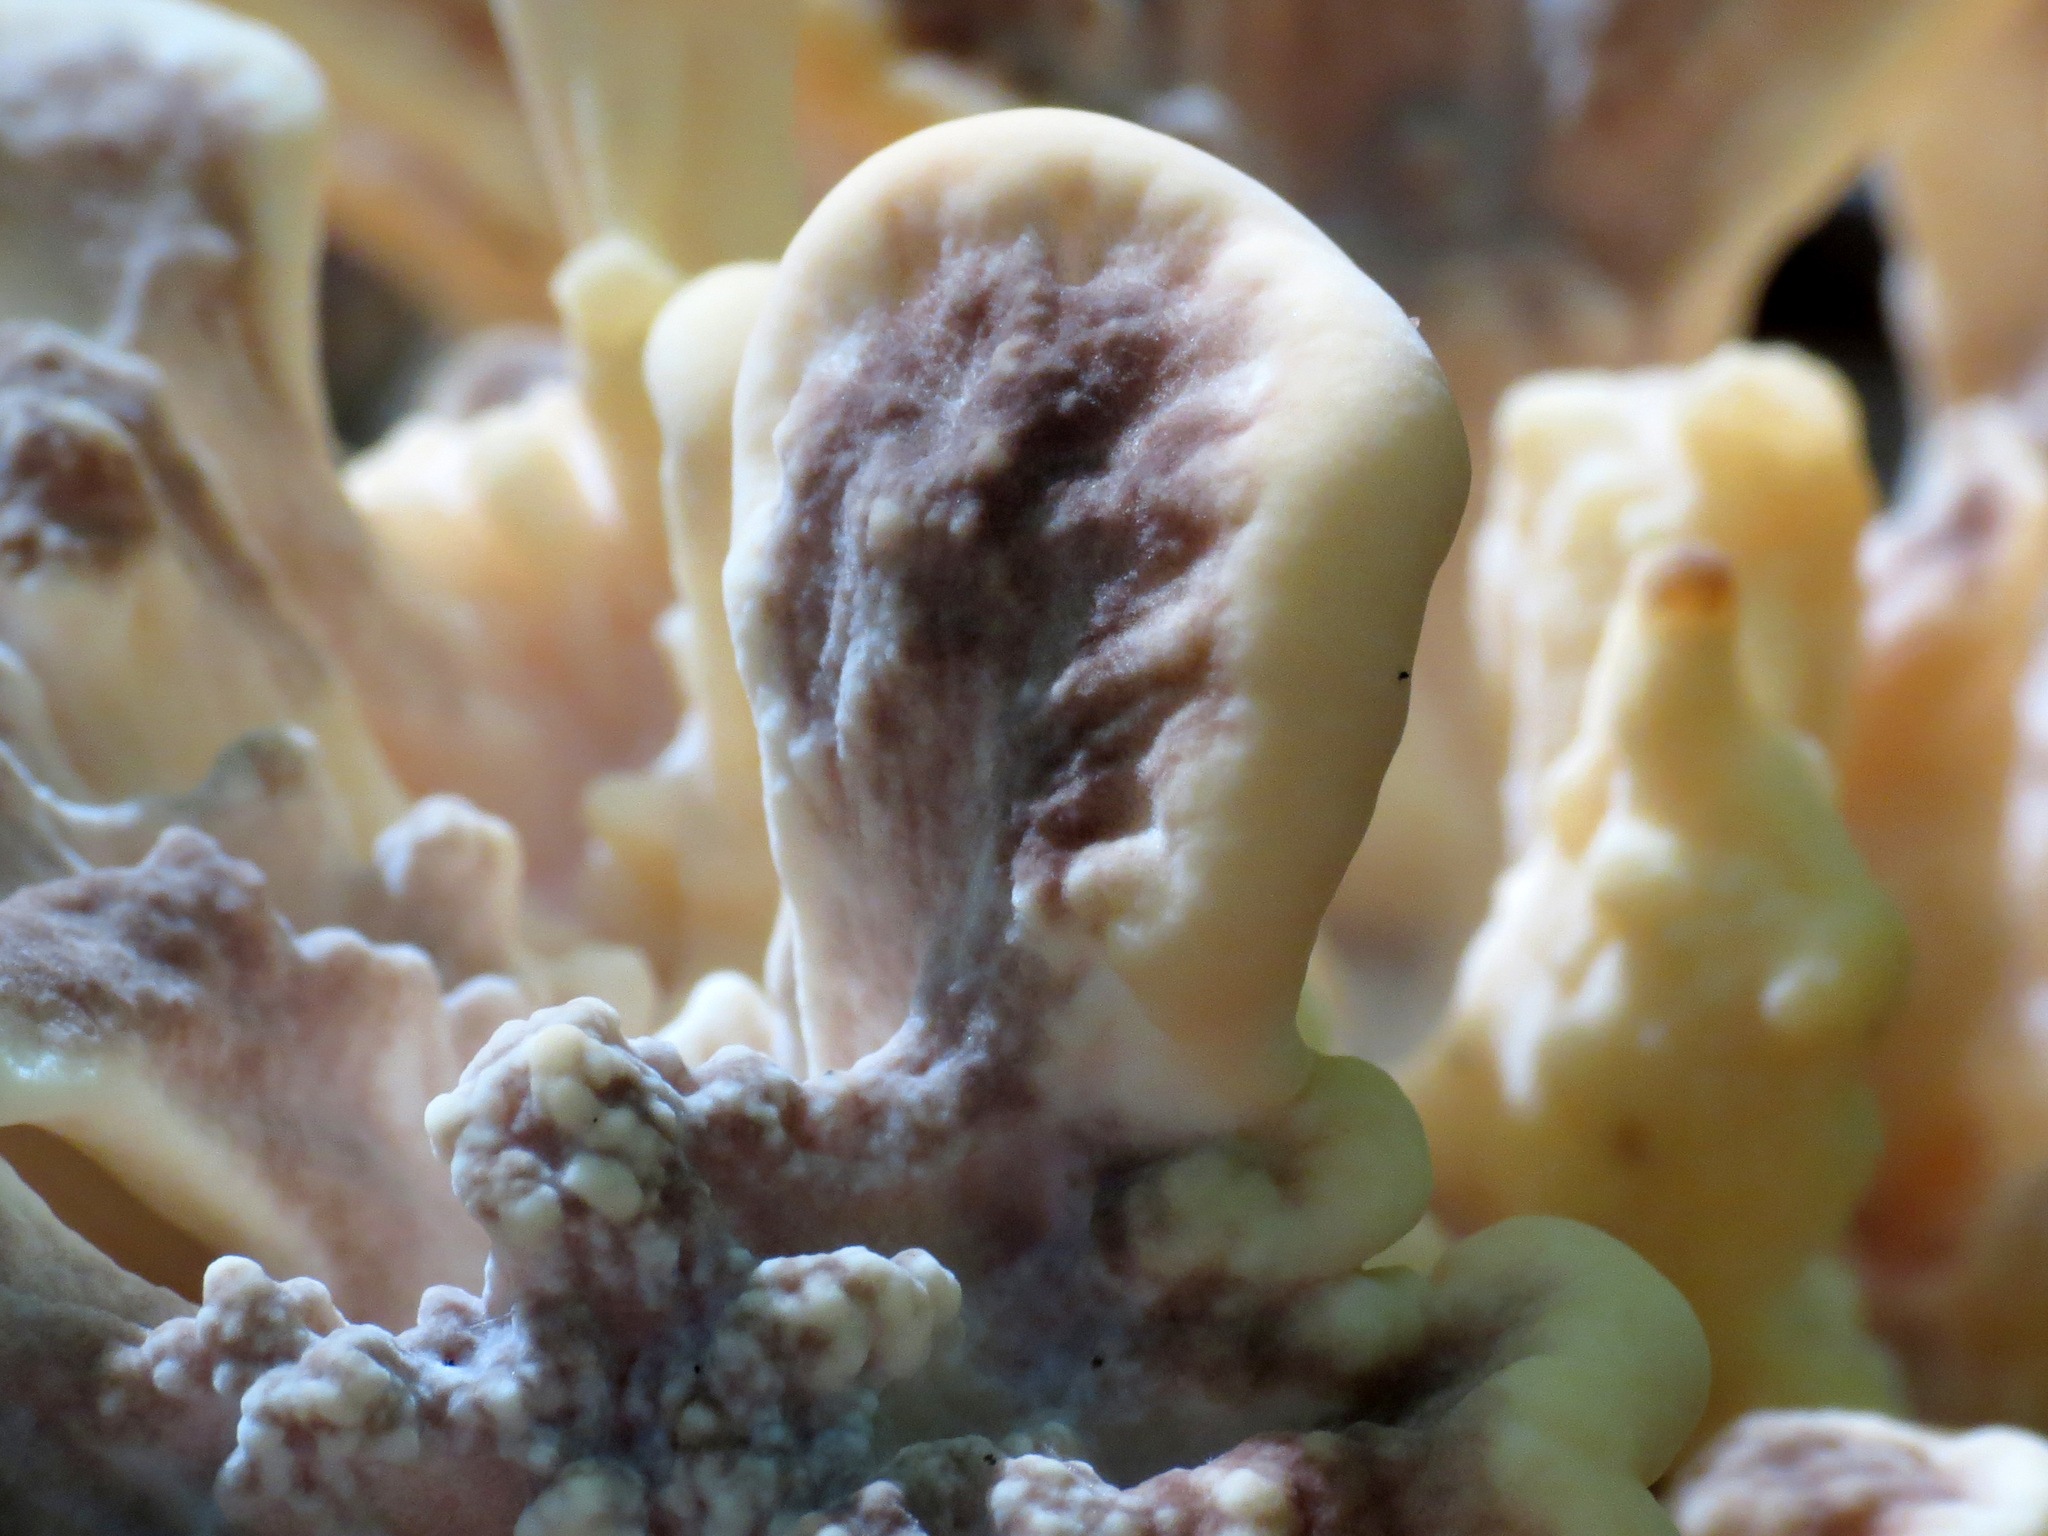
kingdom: Fungi
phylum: Basidiomycota
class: Agaricomycetes
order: Polyporales
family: Meripilaceae
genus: Meripilus
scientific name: Meripilus sumstinei
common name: Black-staining polypore
